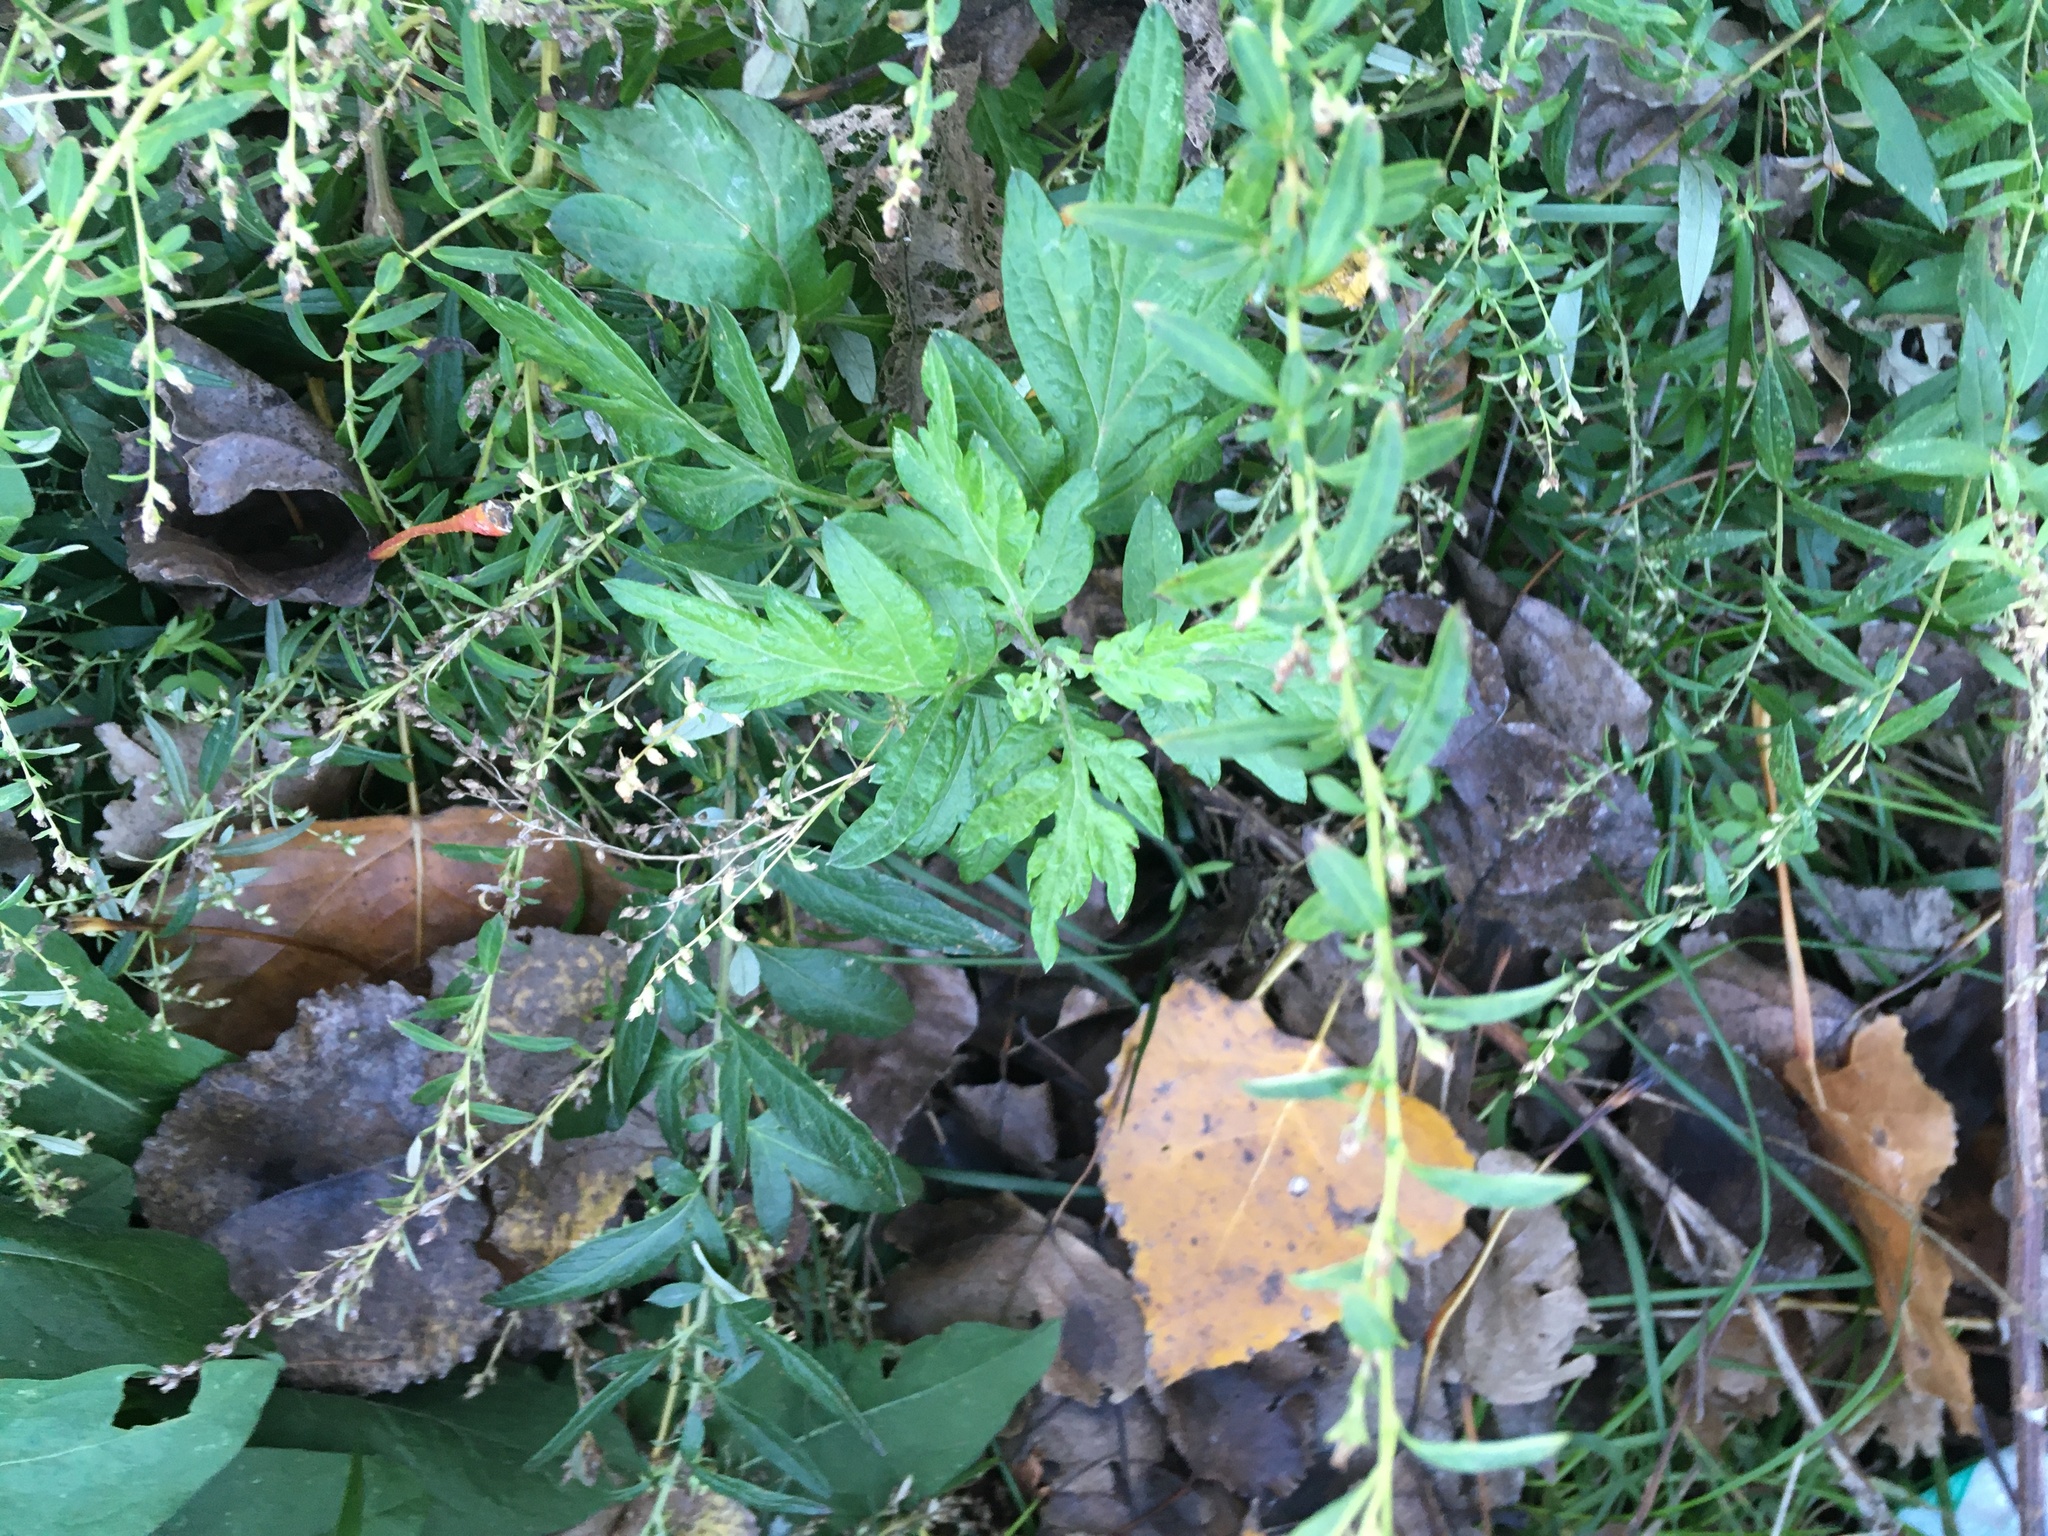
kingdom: Plantae
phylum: Tracheophyta
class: Magnoliopsida
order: Asterales
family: Asteraceae
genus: Artemisia
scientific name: Artemisia vulgaris
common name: Mugwort
